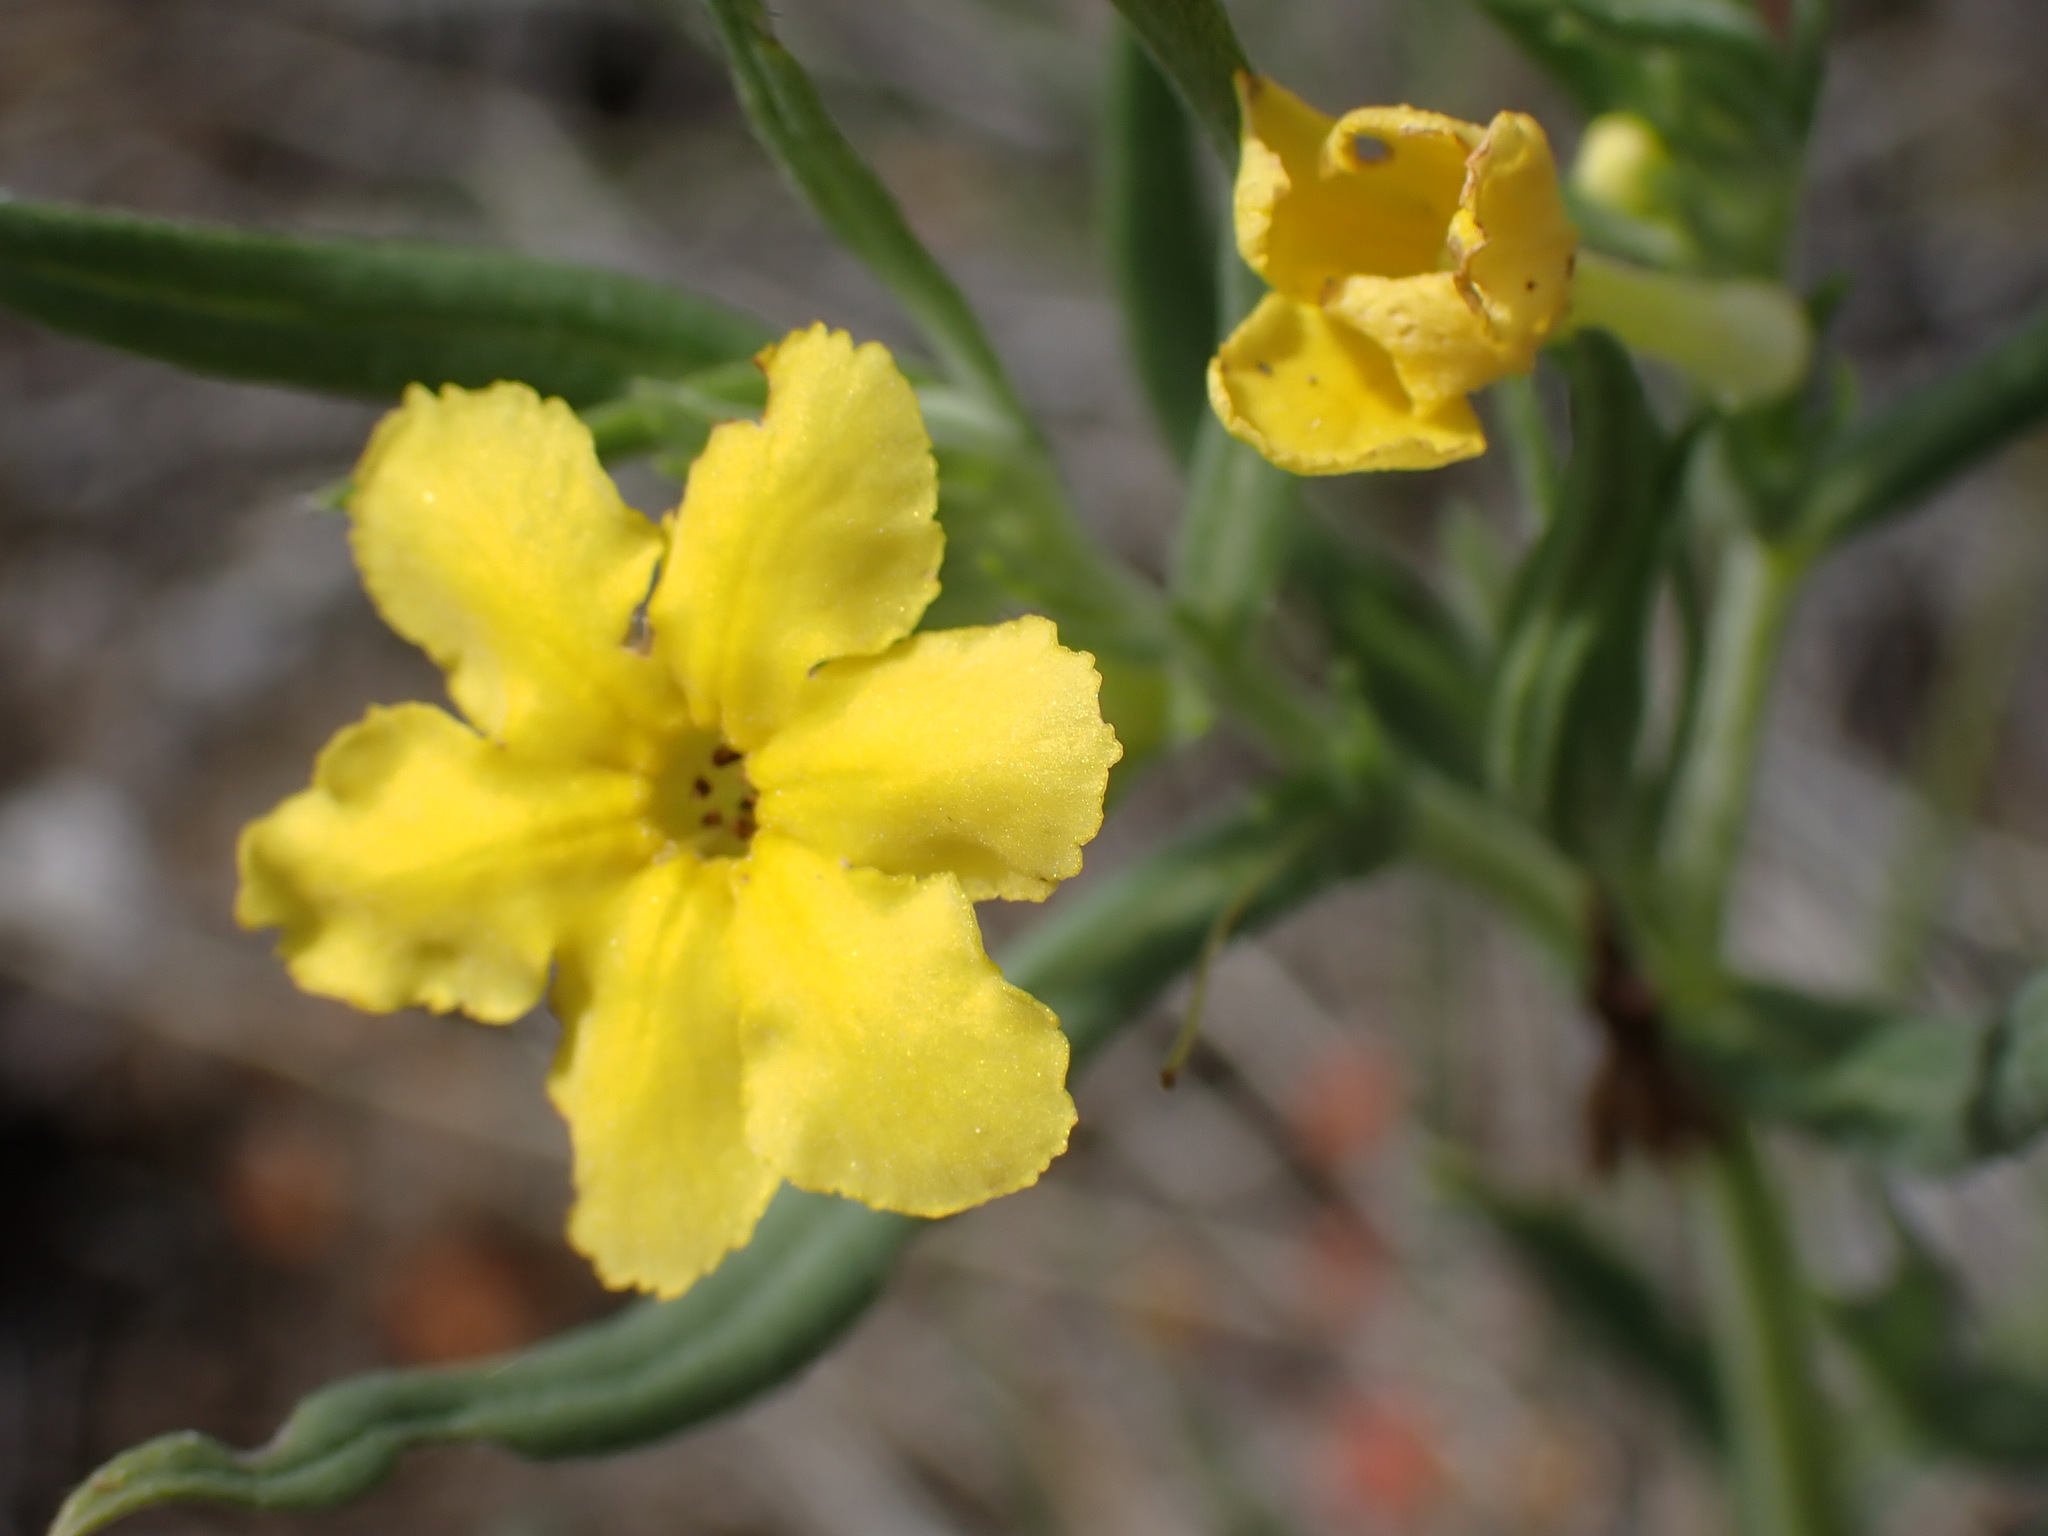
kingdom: Plantae
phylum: Tracheophyta
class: Magnoliopsida
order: Boraginales
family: Boraginaceae
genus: Lithospermum
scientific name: Lithospermum incisum
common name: Fringed gromwell
